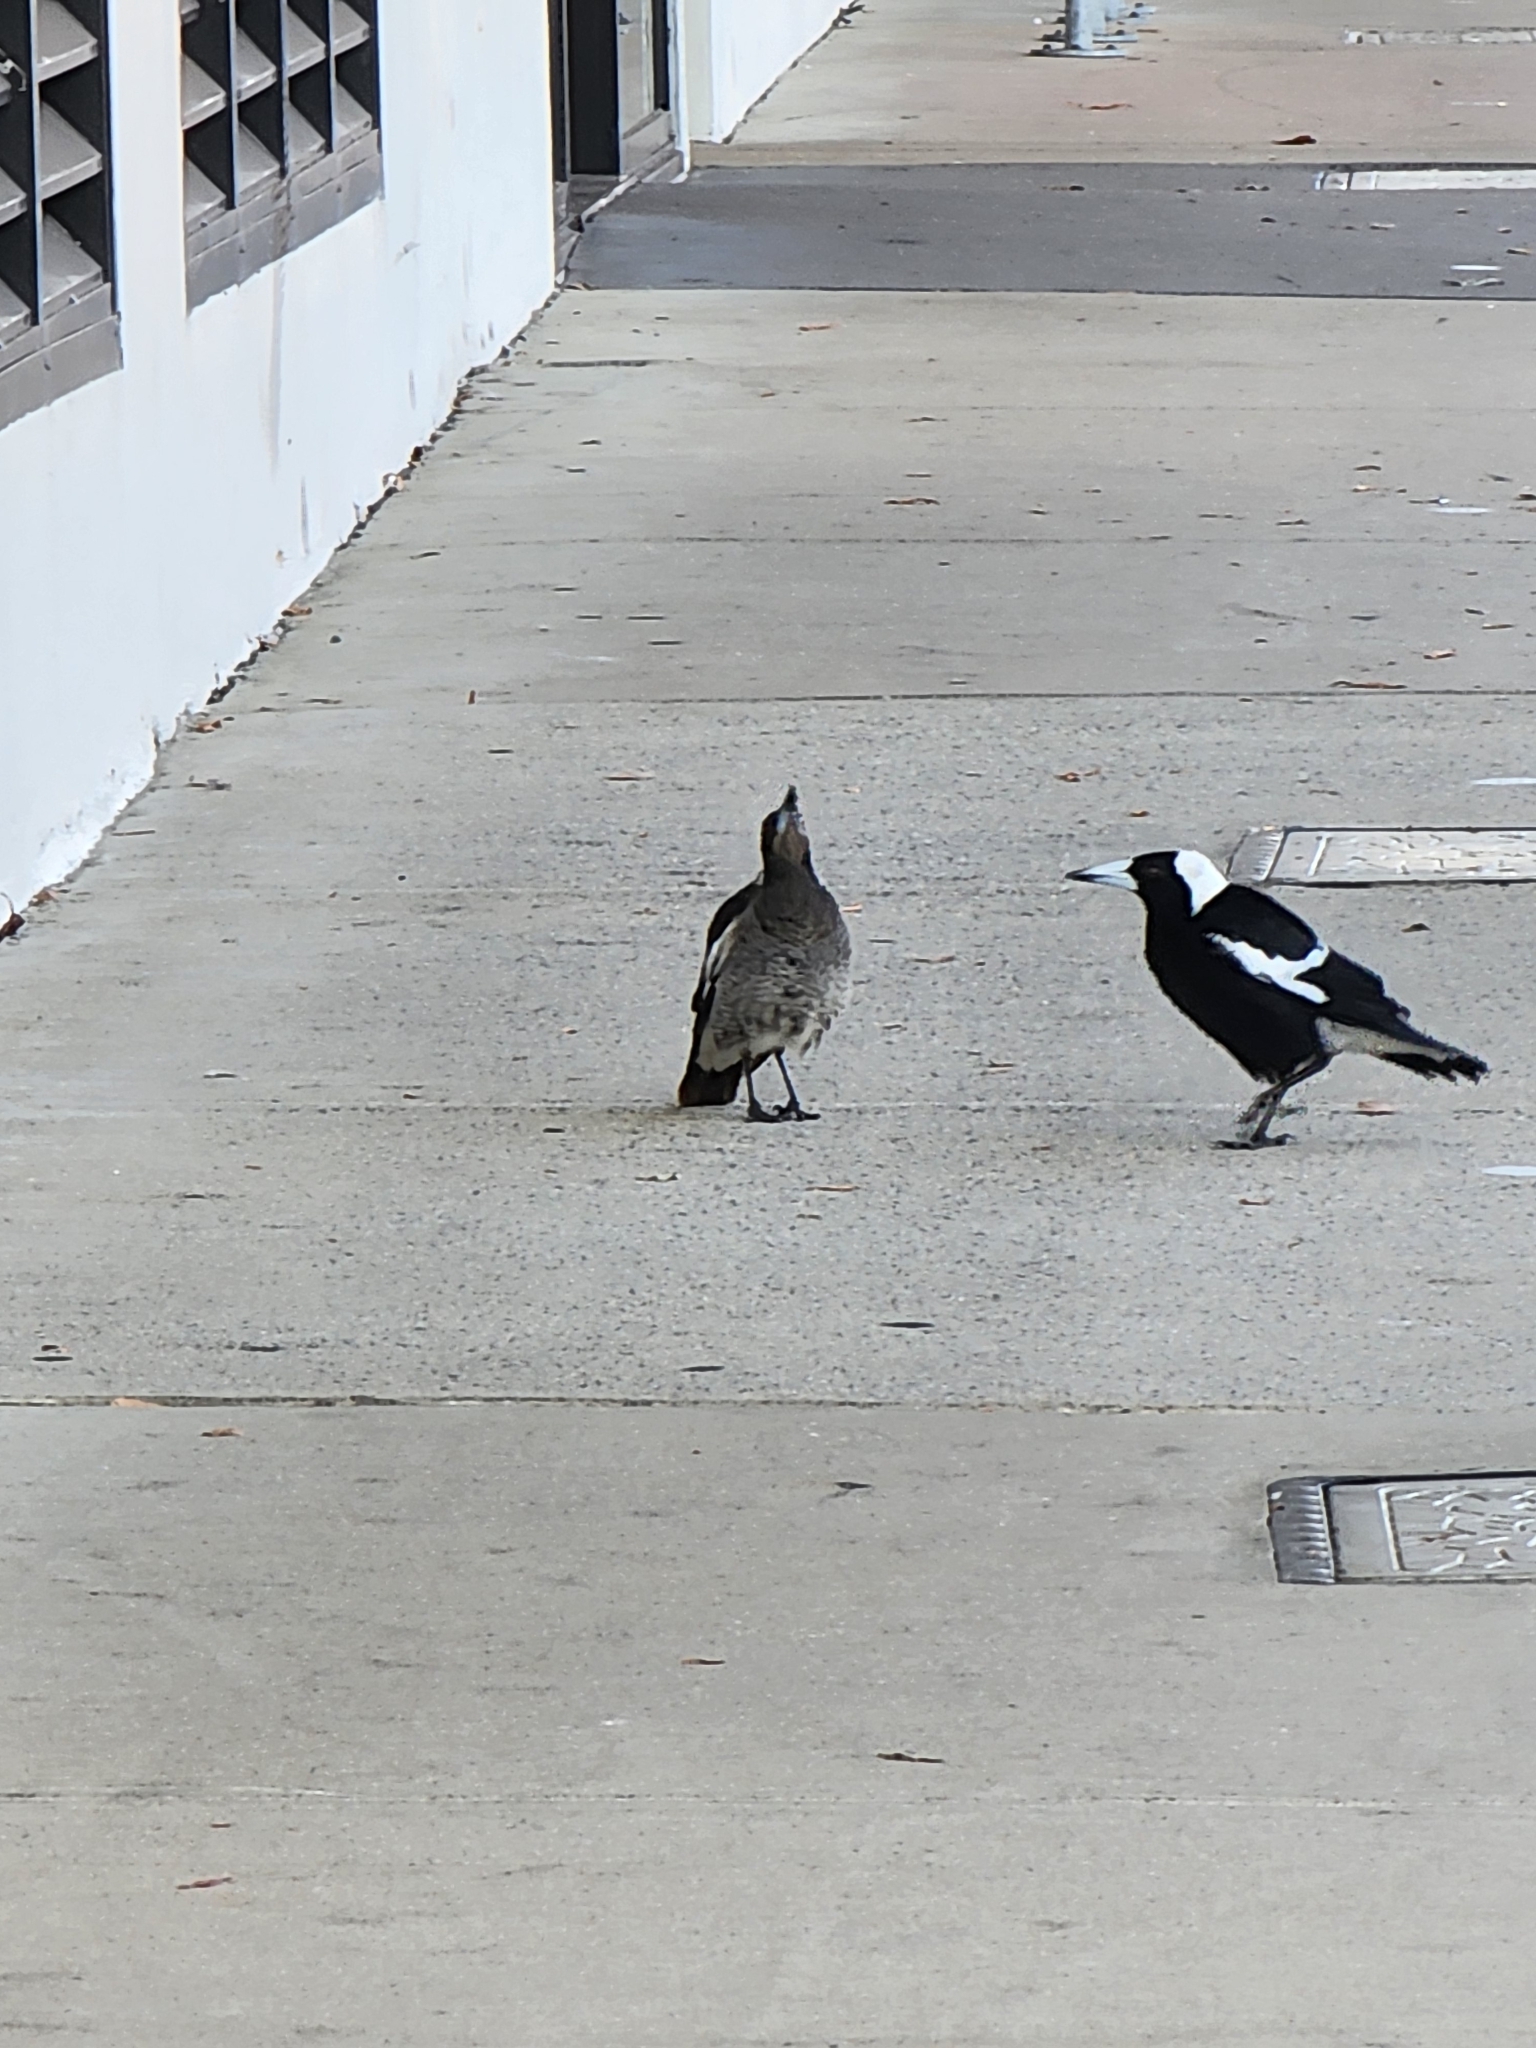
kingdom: Animalia
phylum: Chordata
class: Aves
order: Passeriformes
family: Cracticidae
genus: Gymnorhina
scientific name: Gymnorhina tibicen
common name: Australian magpie
